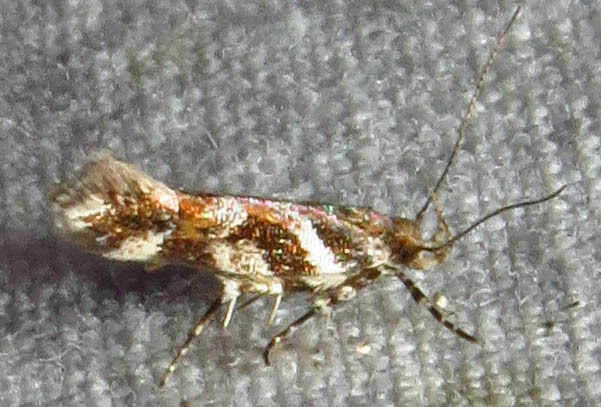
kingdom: Animalia
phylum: Arthropoda
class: Insecta
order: Lepidoptera
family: Gelechiidae
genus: Aristotelia
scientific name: Aristotelia roseosuffusella
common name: Pink-washed aristotelia moth
